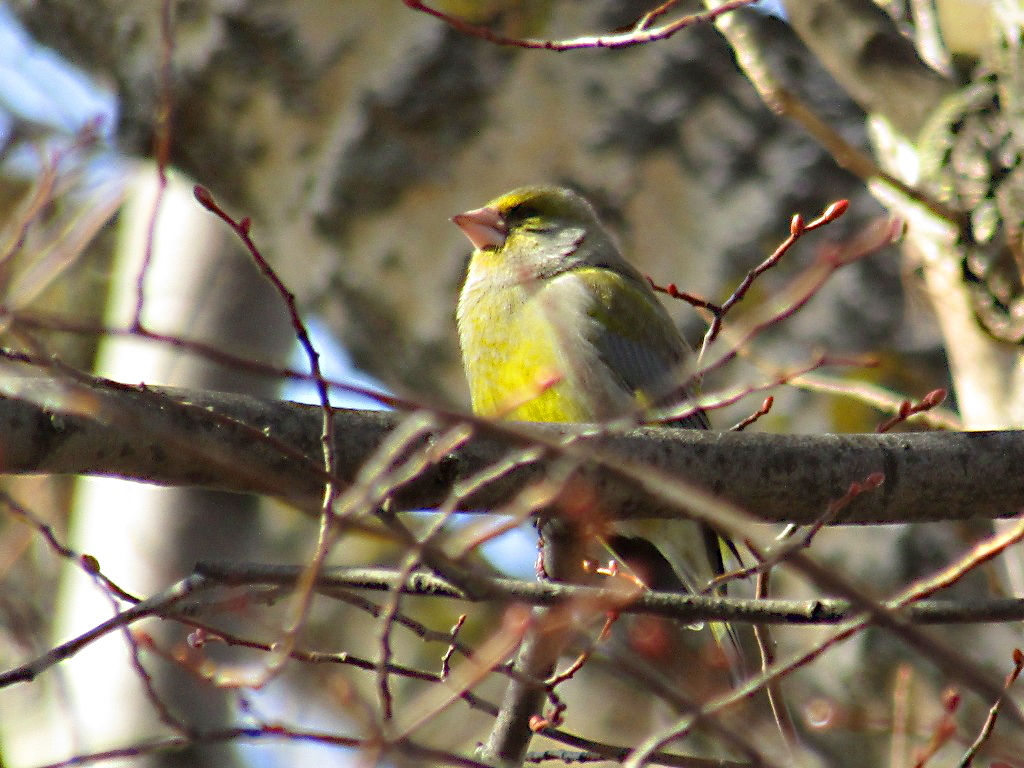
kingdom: Plantae
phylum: Tracheophyta
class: Liliopsida
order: Poales
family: Poaceae
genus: Chloris
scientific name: Chloris chloris
